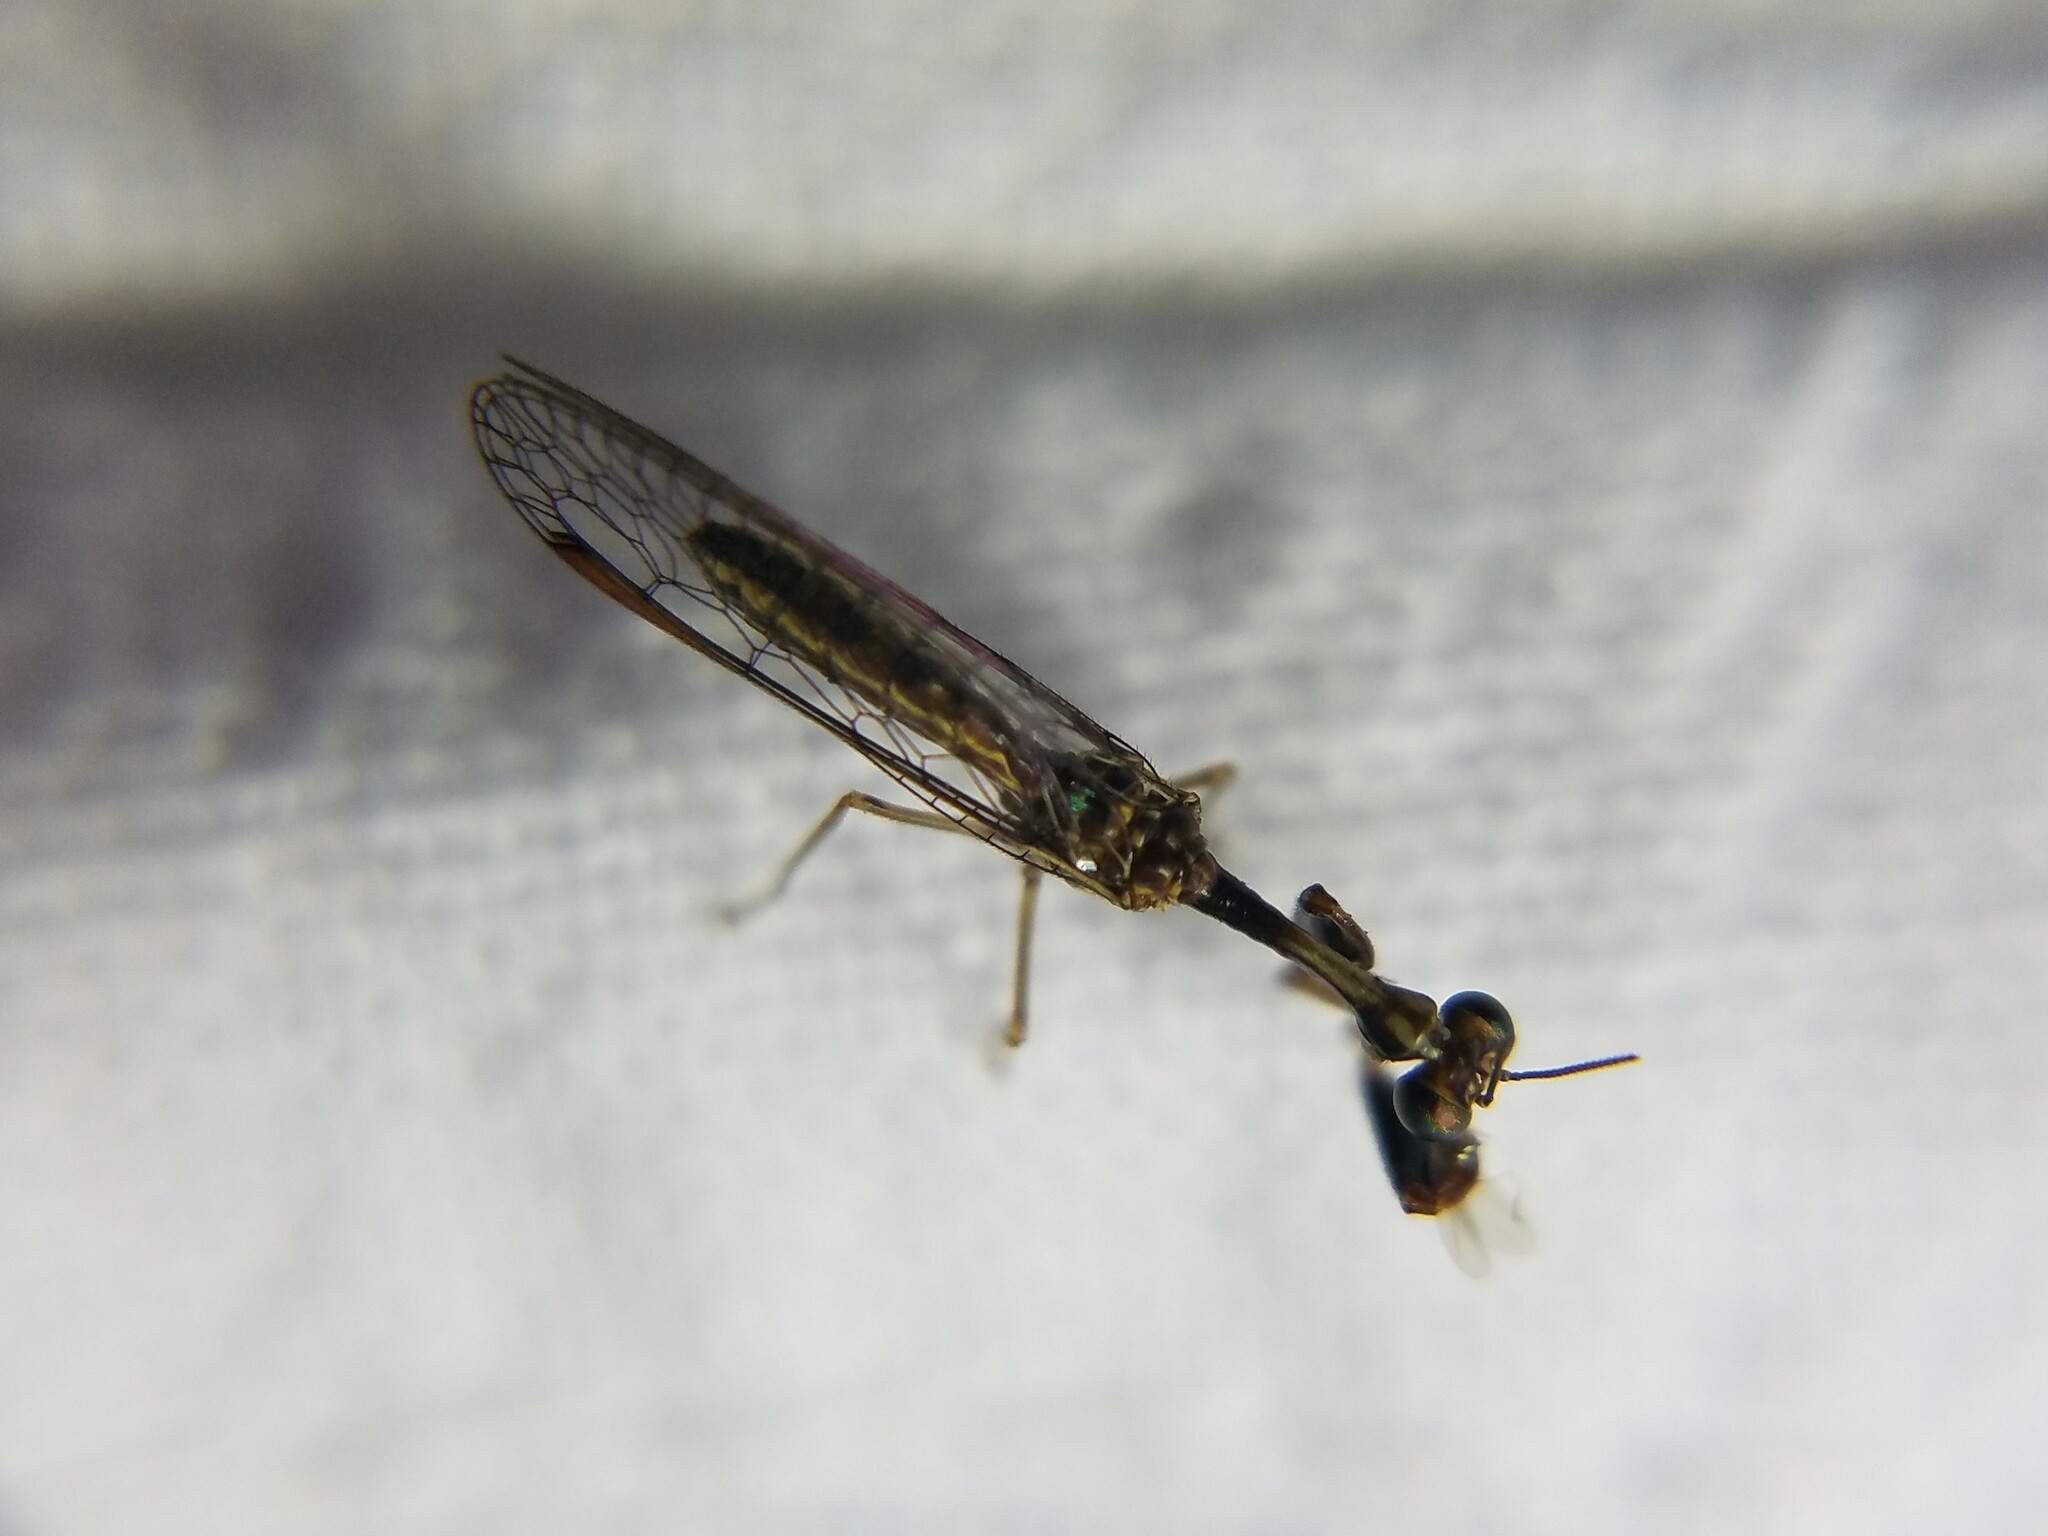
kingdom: Animalia
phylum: Arthropoda
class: Insecta
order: Neuroptera
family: Mantispidae
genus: Leptomantispa
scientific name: Leptomantispa pulchella
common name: Stevens's mantidfly
